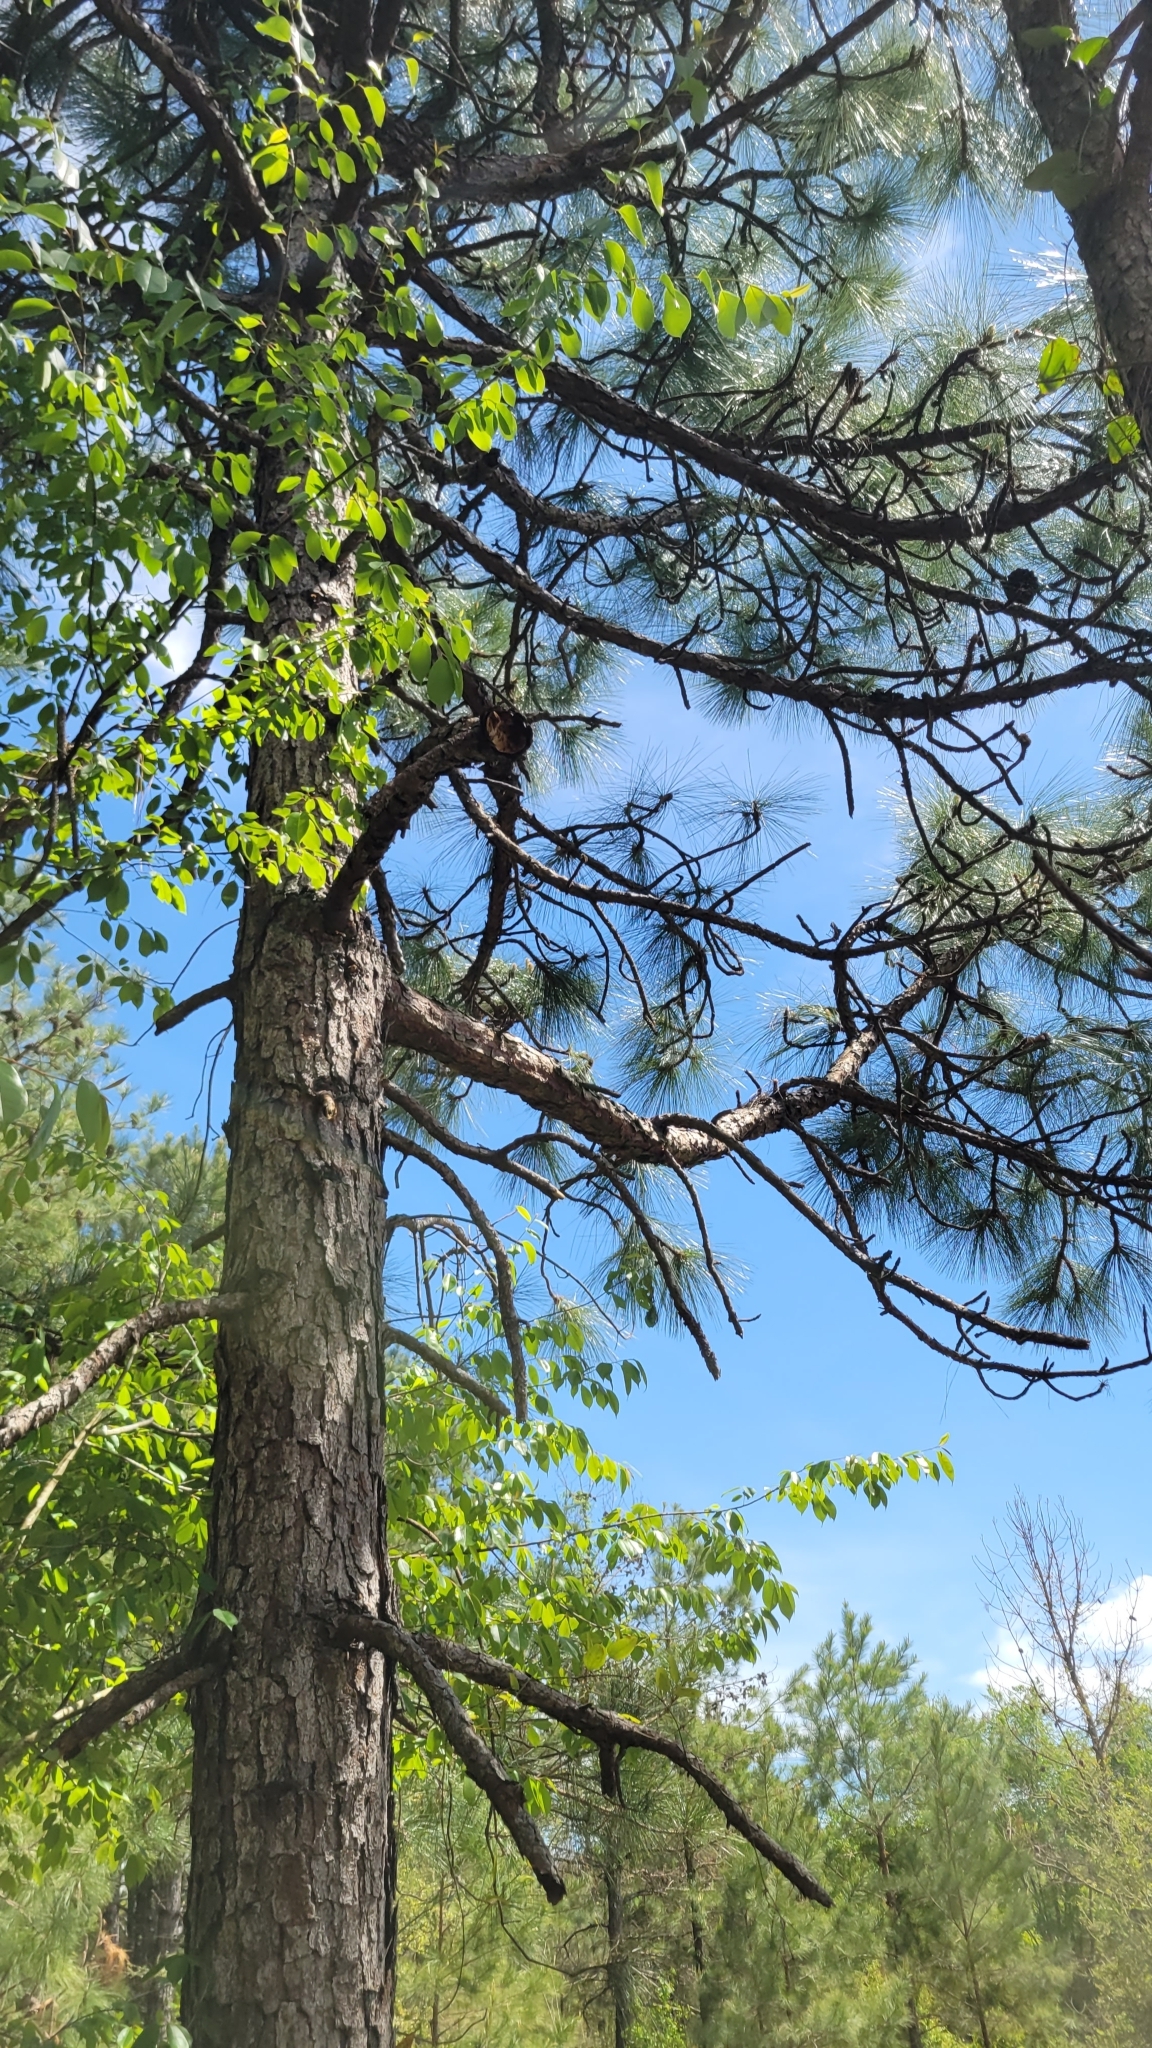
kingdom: Plantae
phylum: Tracheophyta
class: Pinopsida
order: Pinales
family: Pinaceae
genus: Pinus
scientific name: Pinus palustris
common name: Longleaf pine
